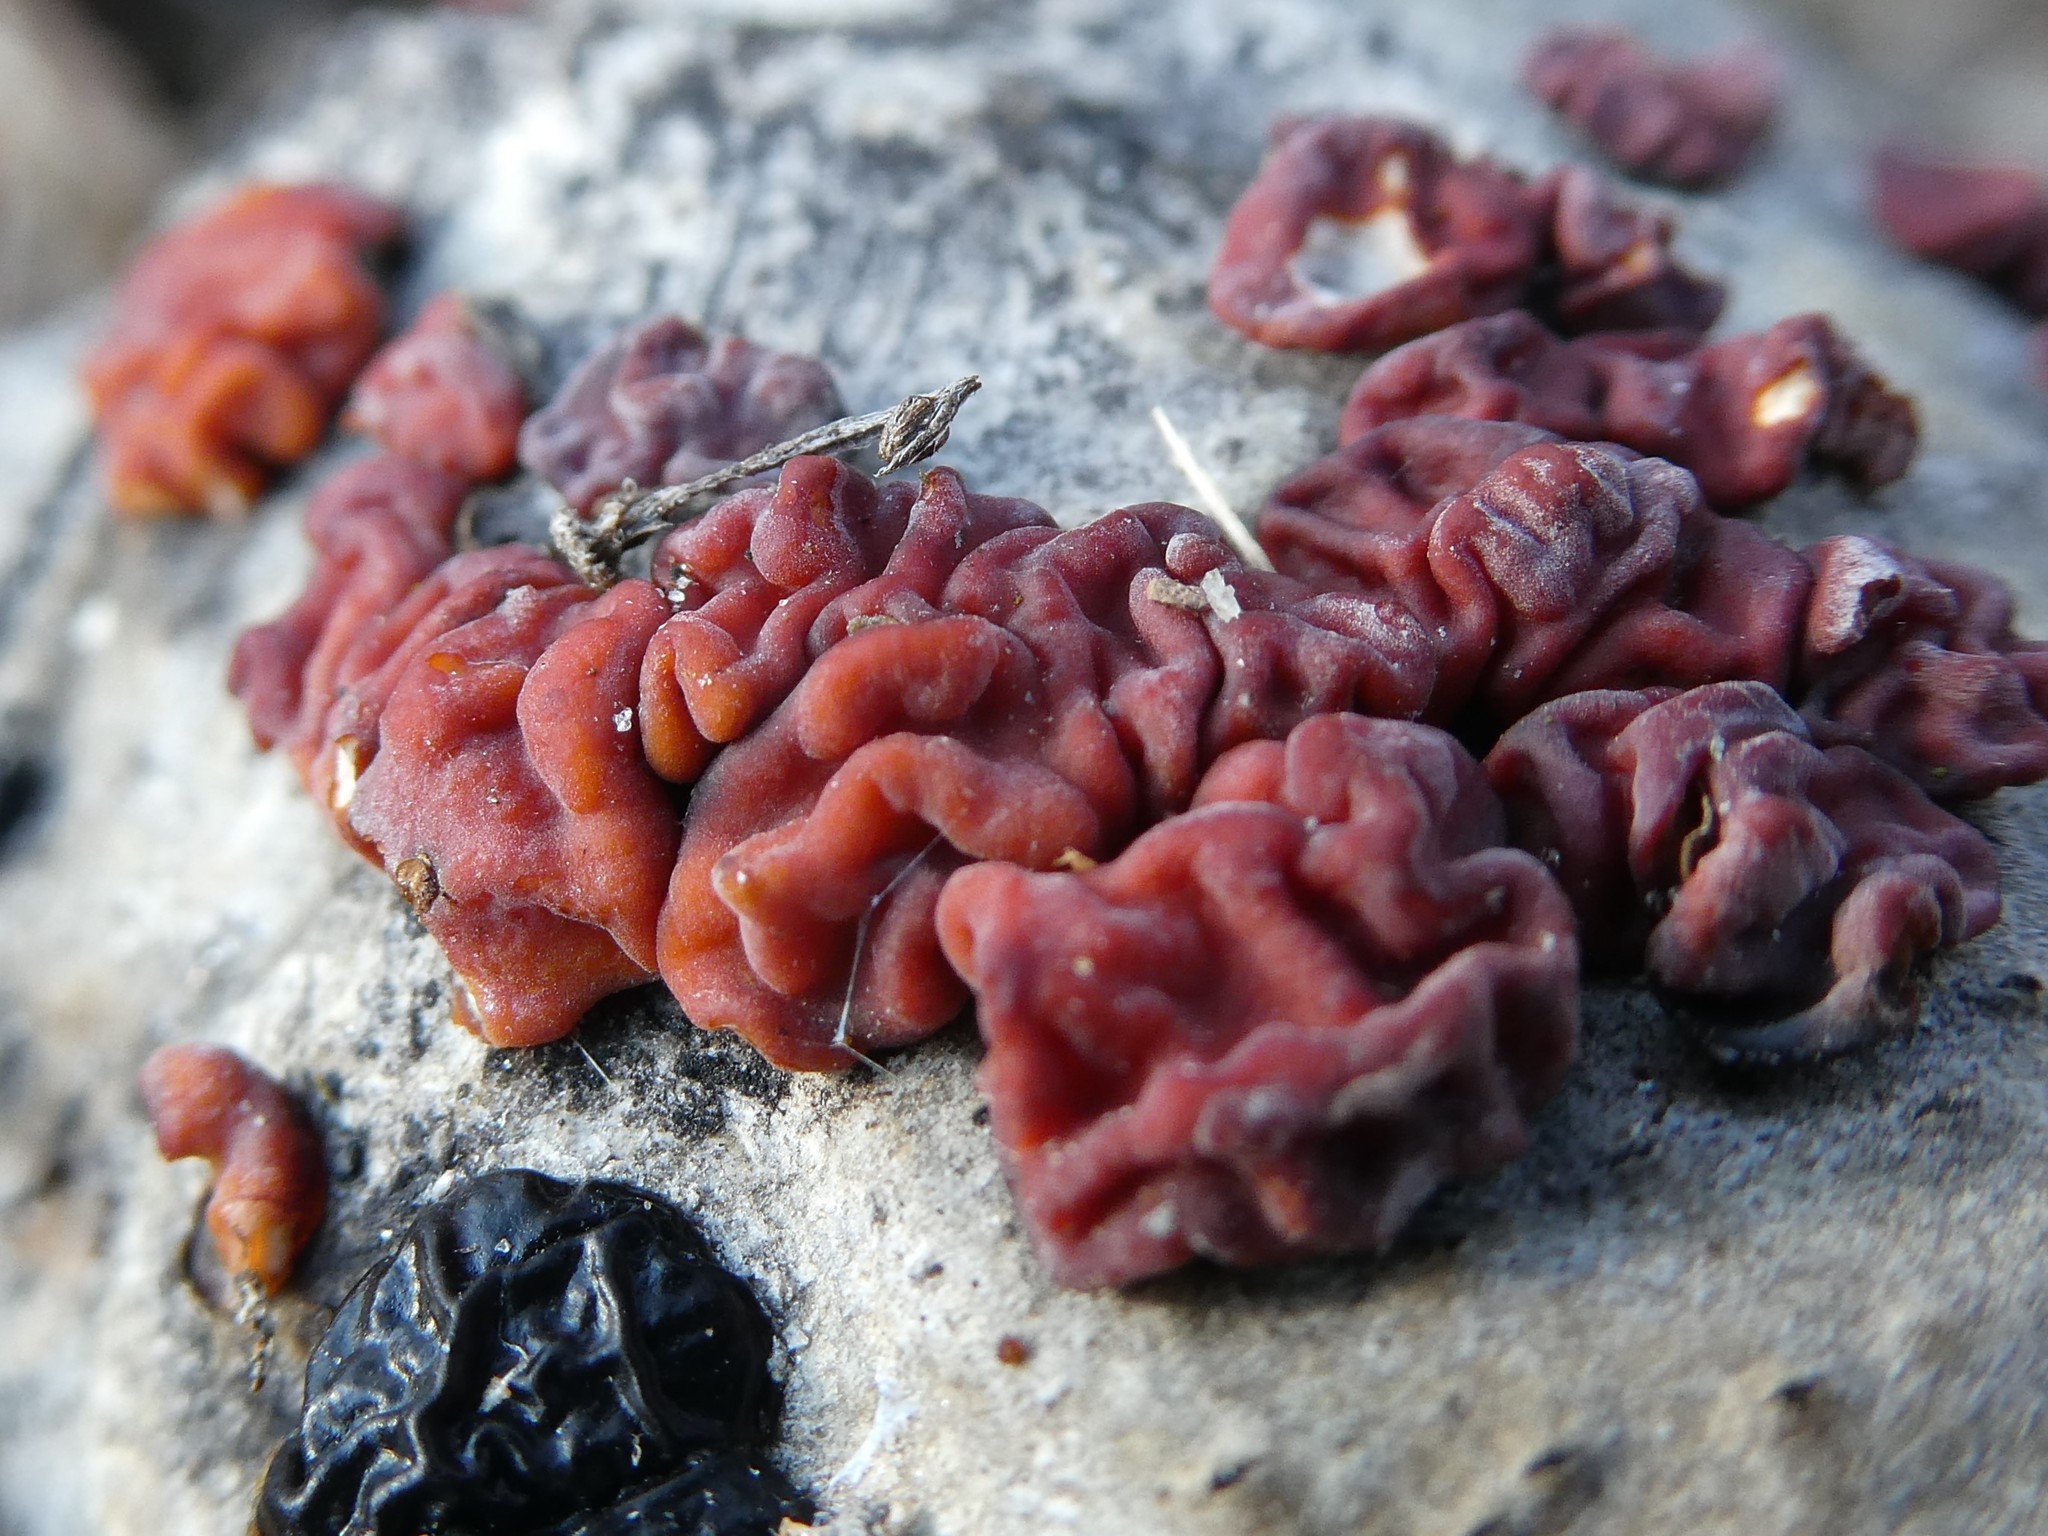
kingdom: Fungi
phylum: Basidiomycota
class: Agaricomycetes
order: Russulales
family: Peniophoraceae
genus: Peniophora
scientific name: Peniophora rufa
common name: Red tree brain fungus
